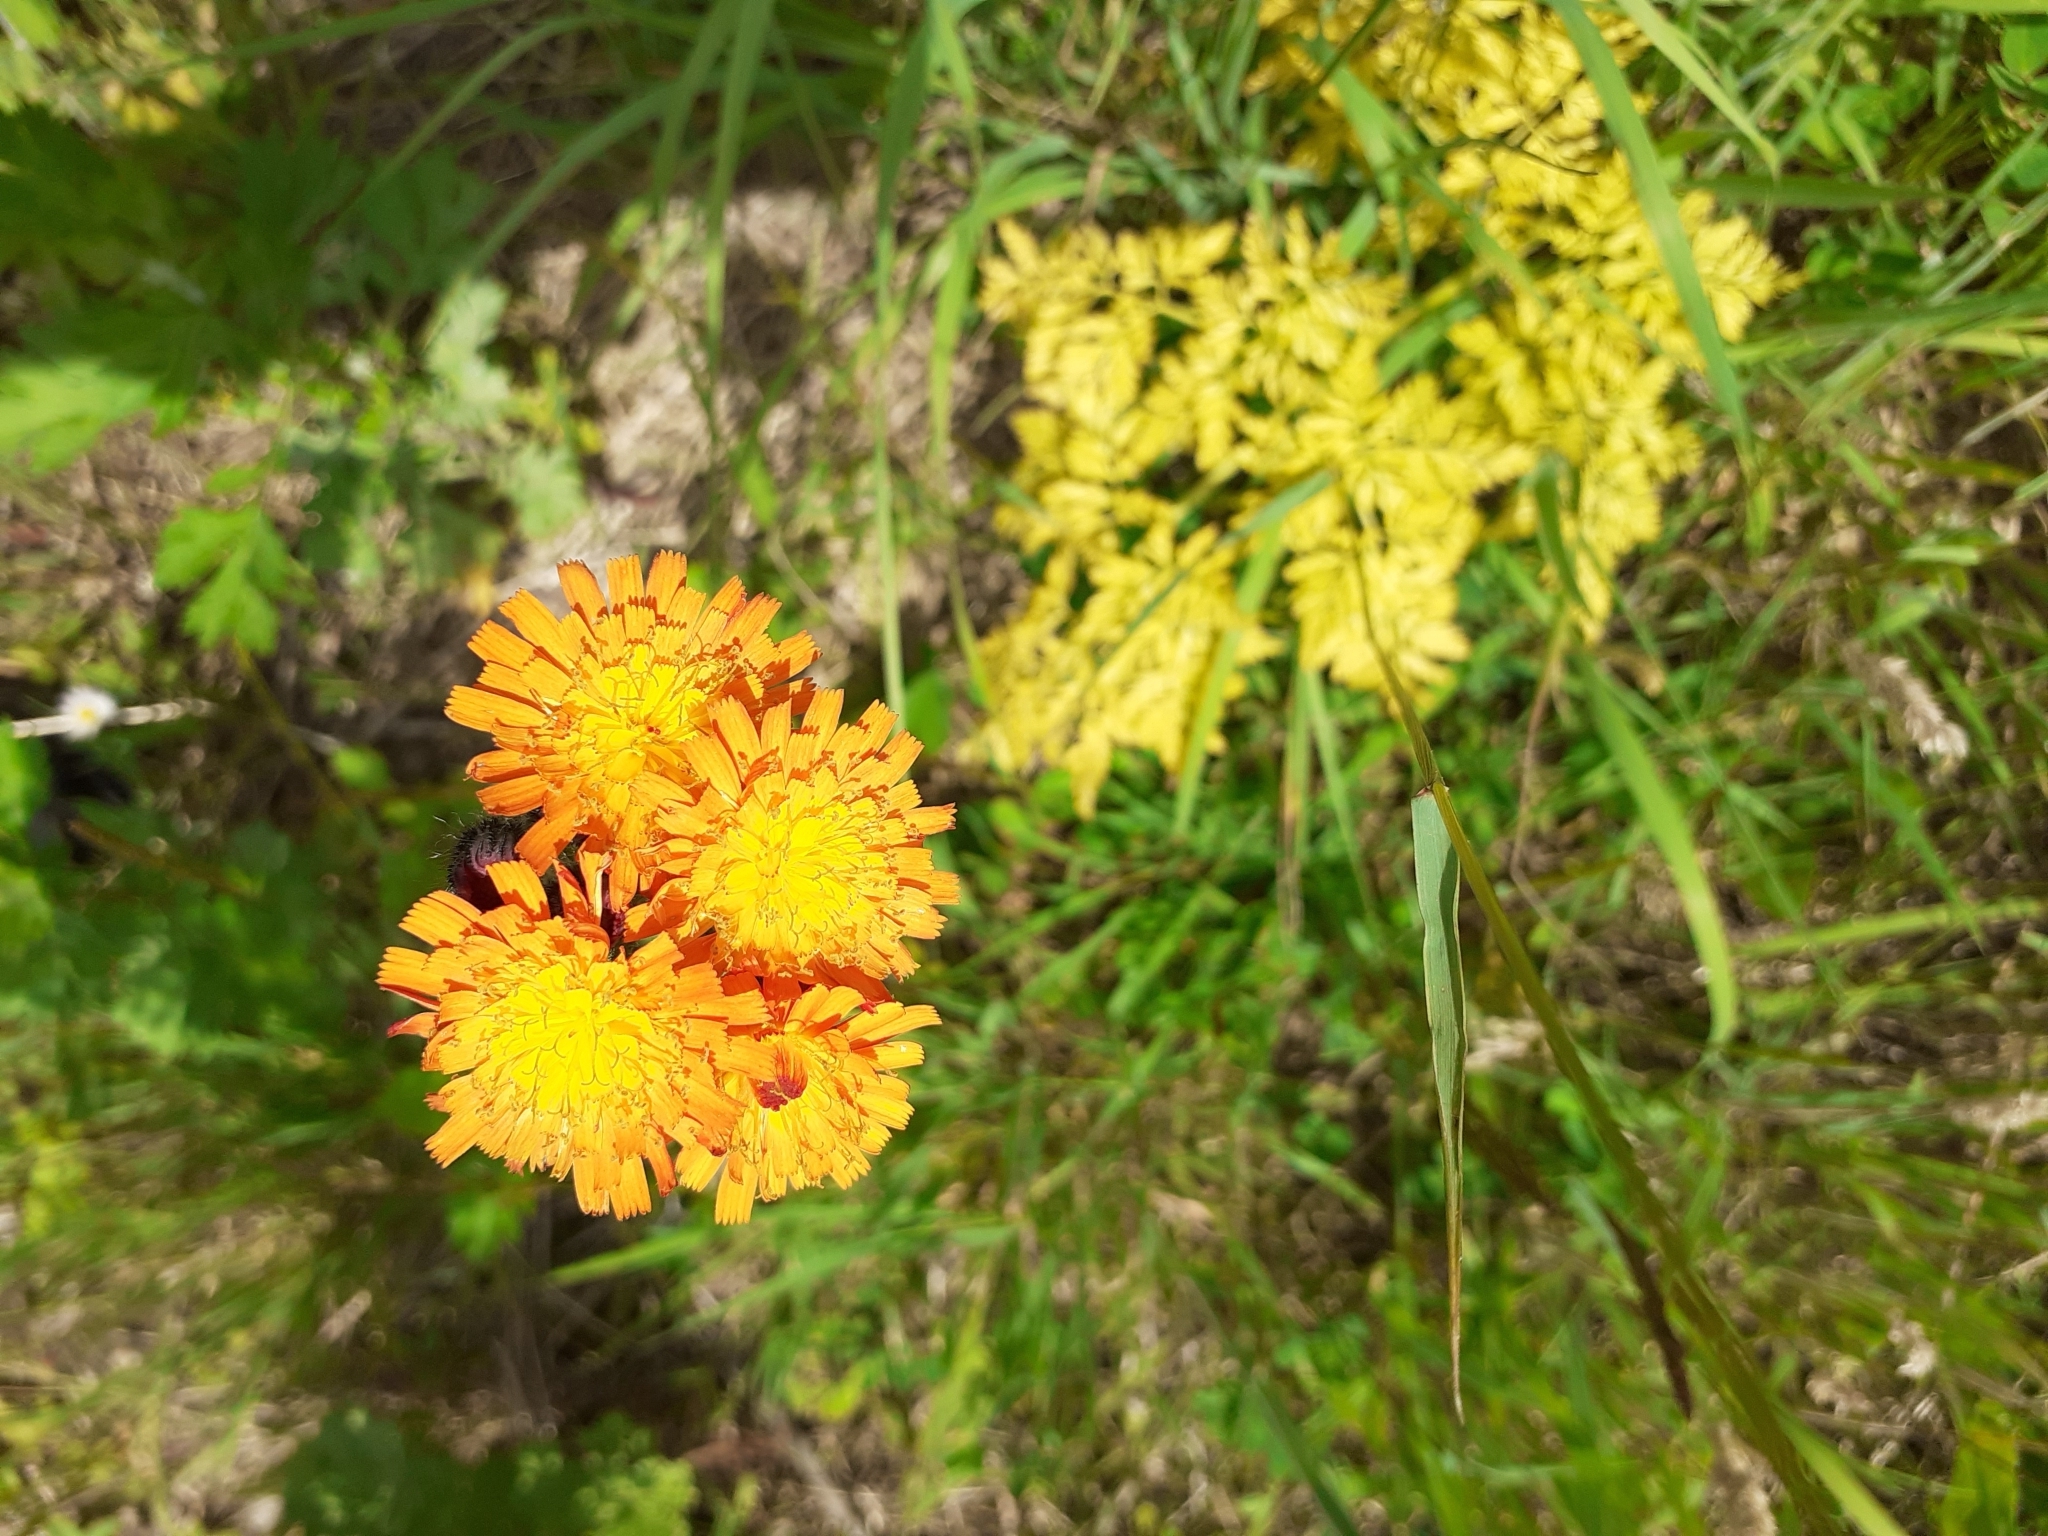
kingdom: Plantae
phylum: Tracheophyta
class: Magnoliopsida
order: Asterales
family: Asteraceae
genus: Pilosella
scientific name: Pilosella aurantiaca
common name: Fox-and-cubs
